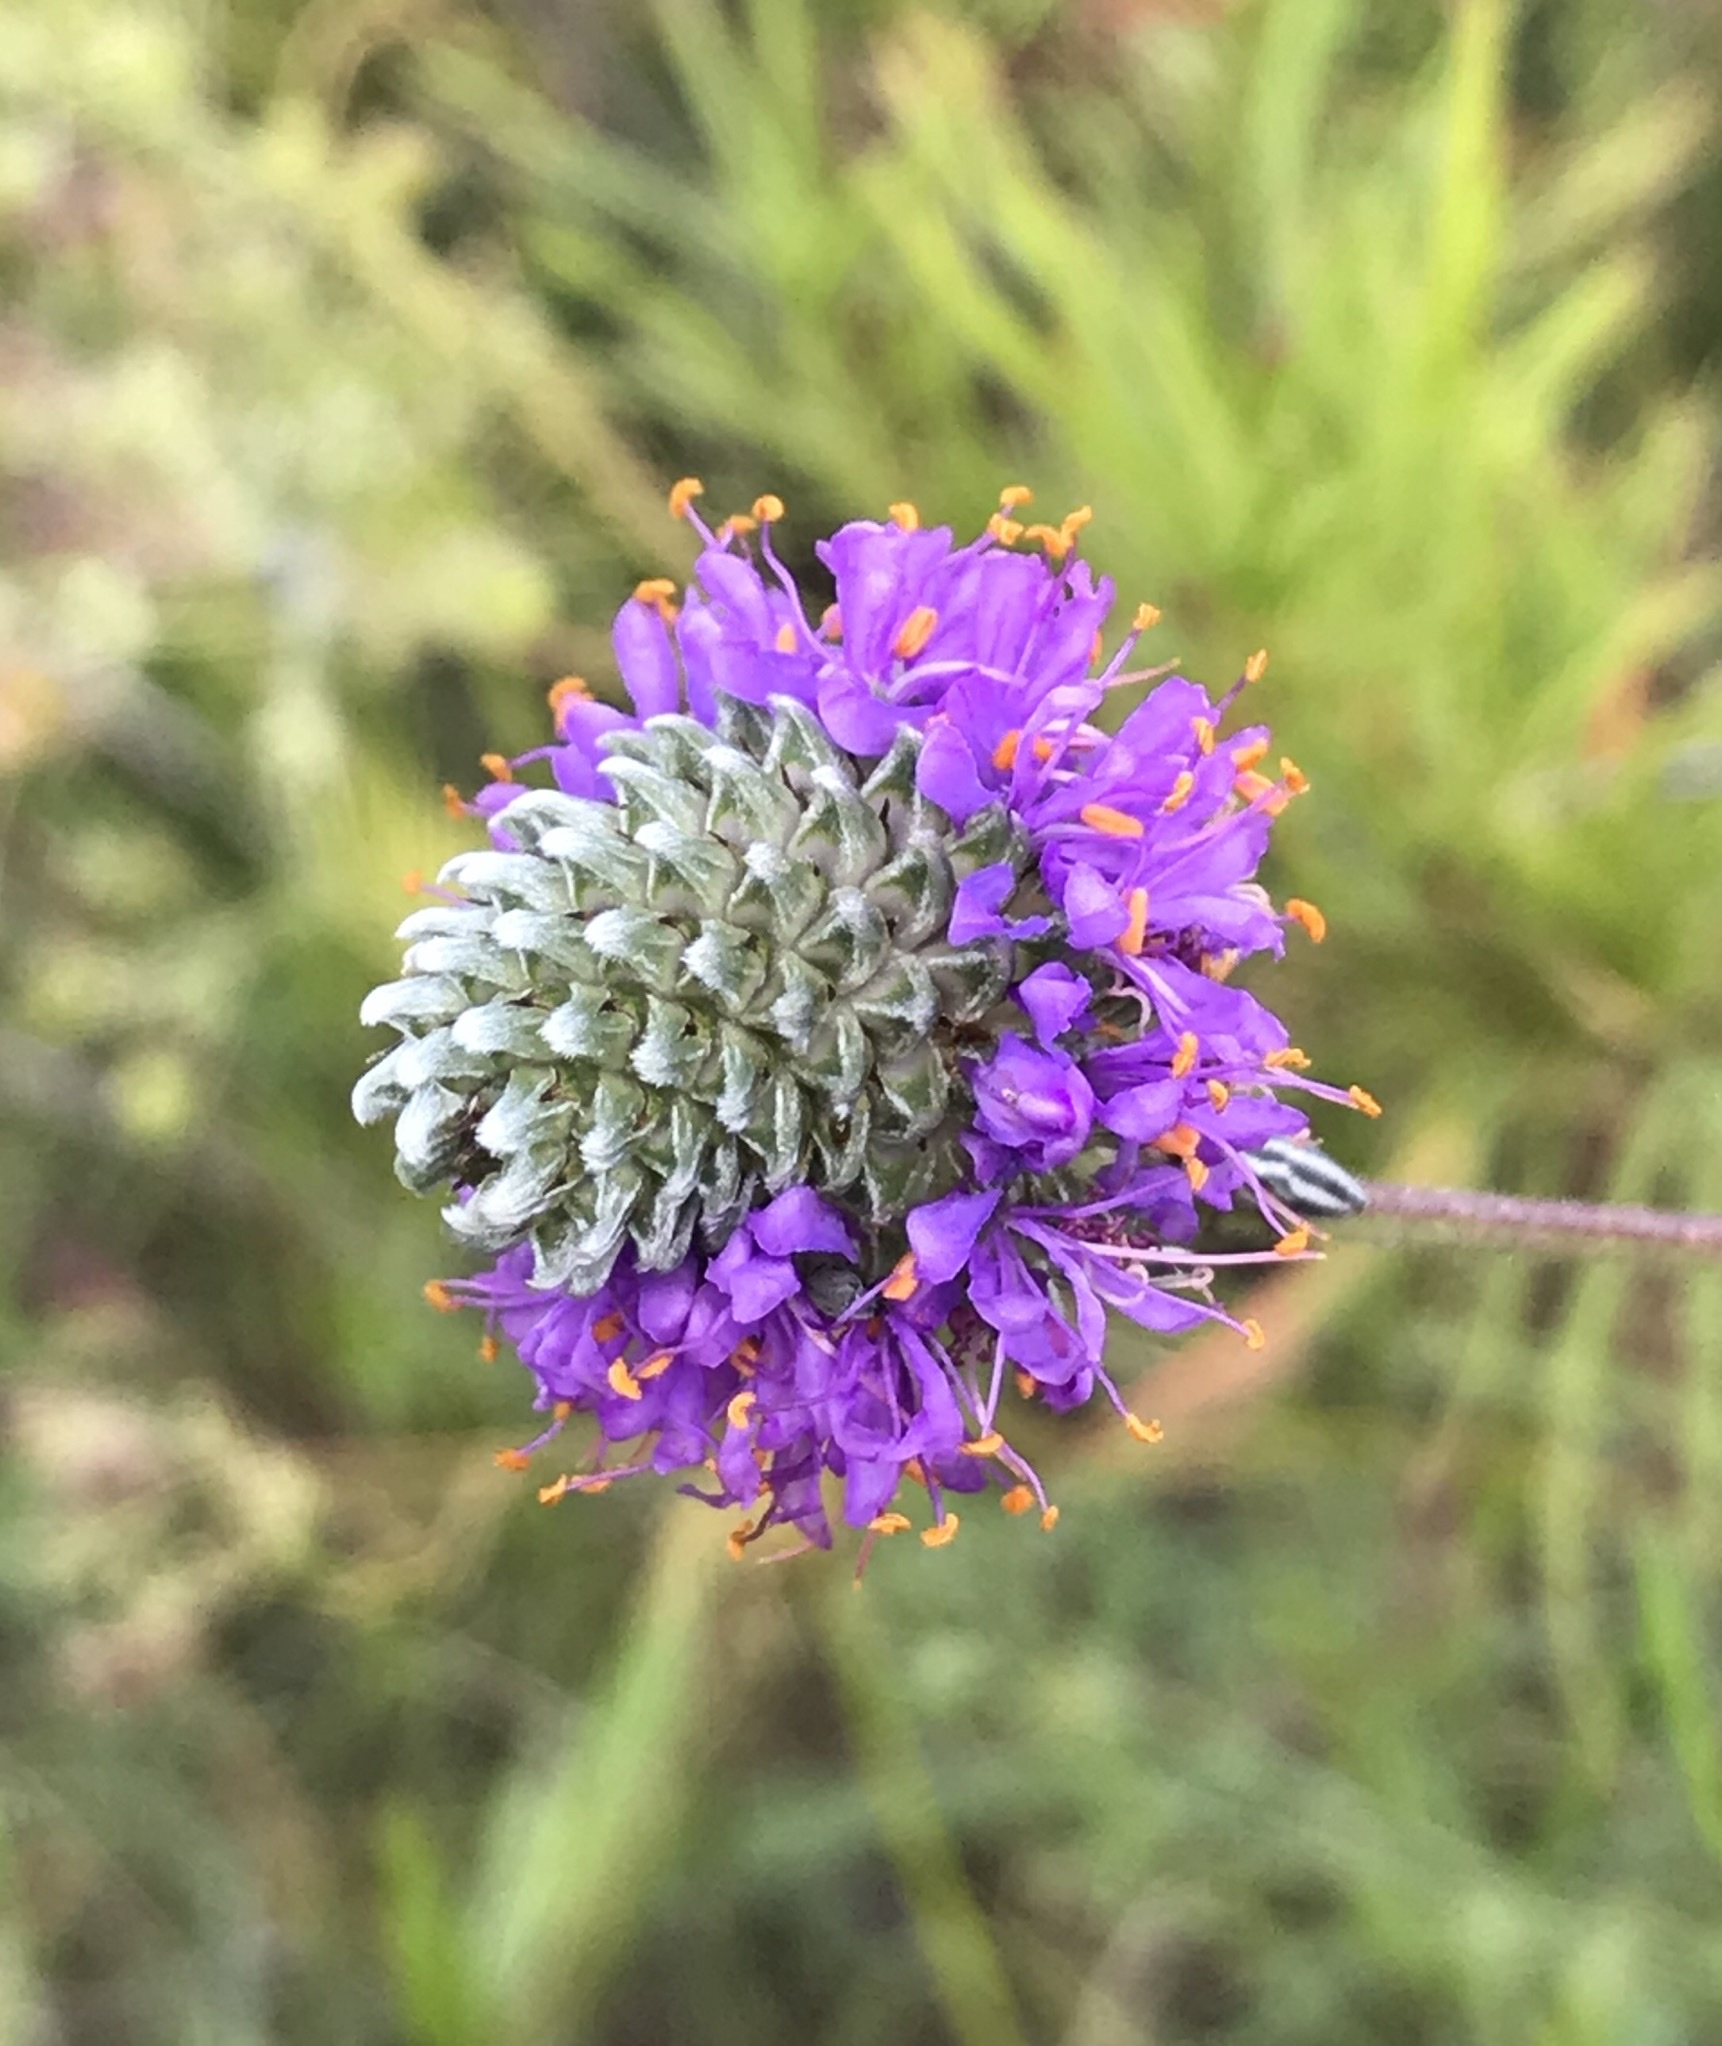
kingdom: Plantae
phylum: Tracheophyta
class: Magnoliopsida
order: Fabales
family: Fabaceae
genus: Dalea
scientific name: Dalea compacta
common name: Compact prairie-clover
